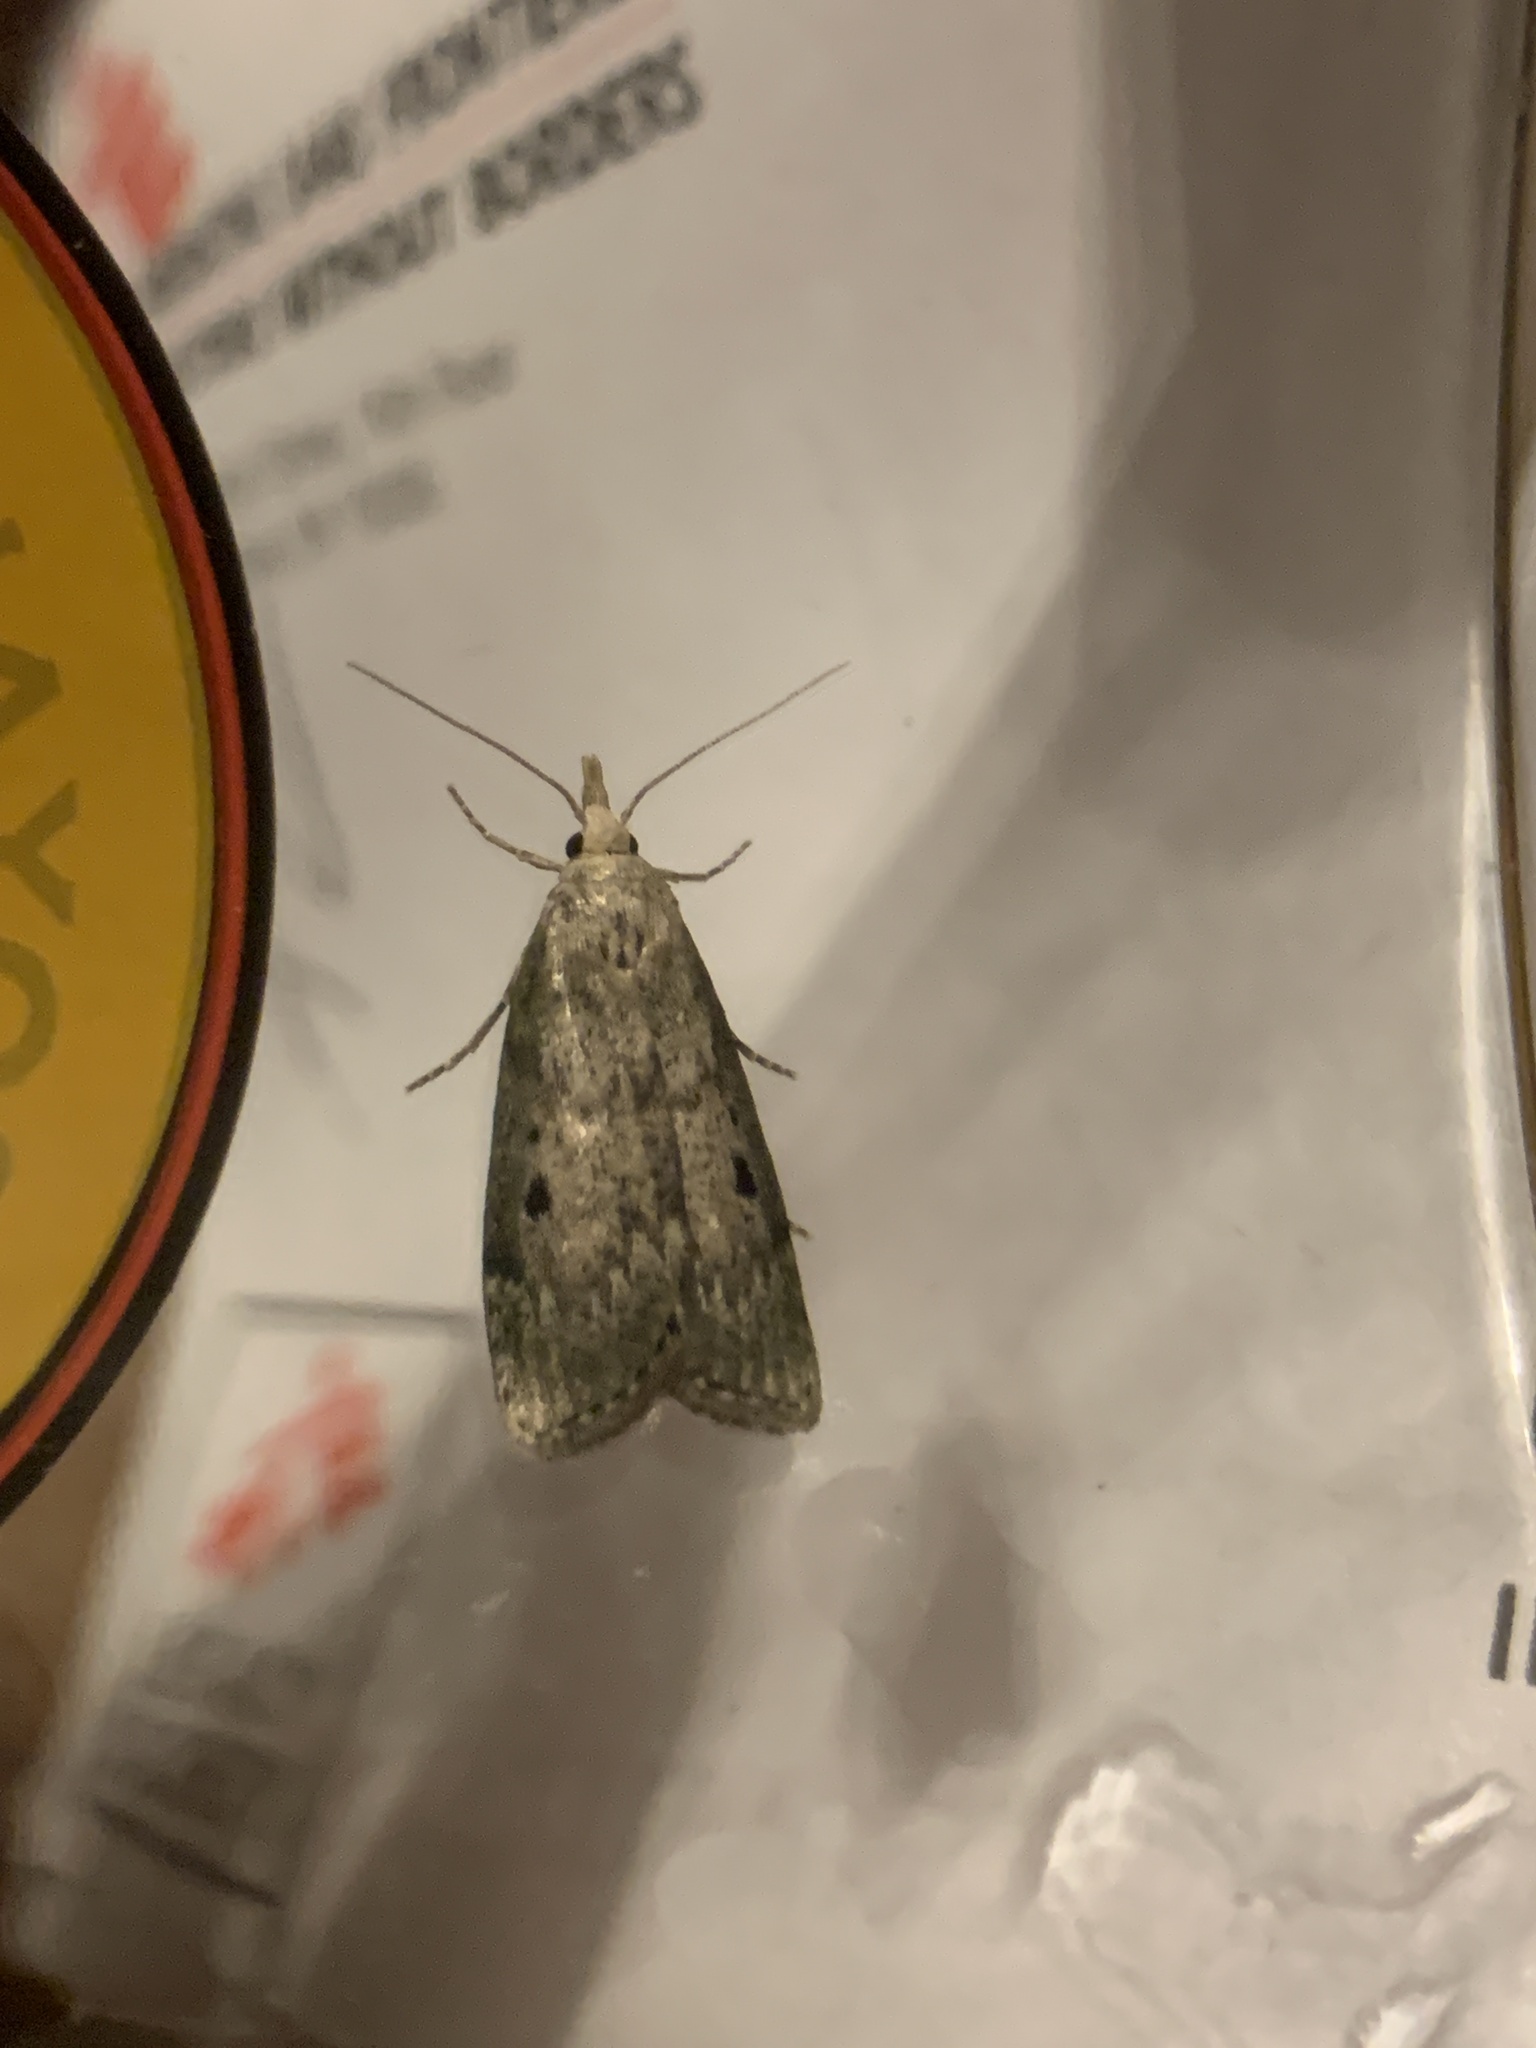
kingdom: Animalia
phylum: Arthropoda
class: Insecta
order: Lepidoptera
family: Pyralidae
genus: Aphomia
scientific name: Aphomia sociella
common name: Bee moth
